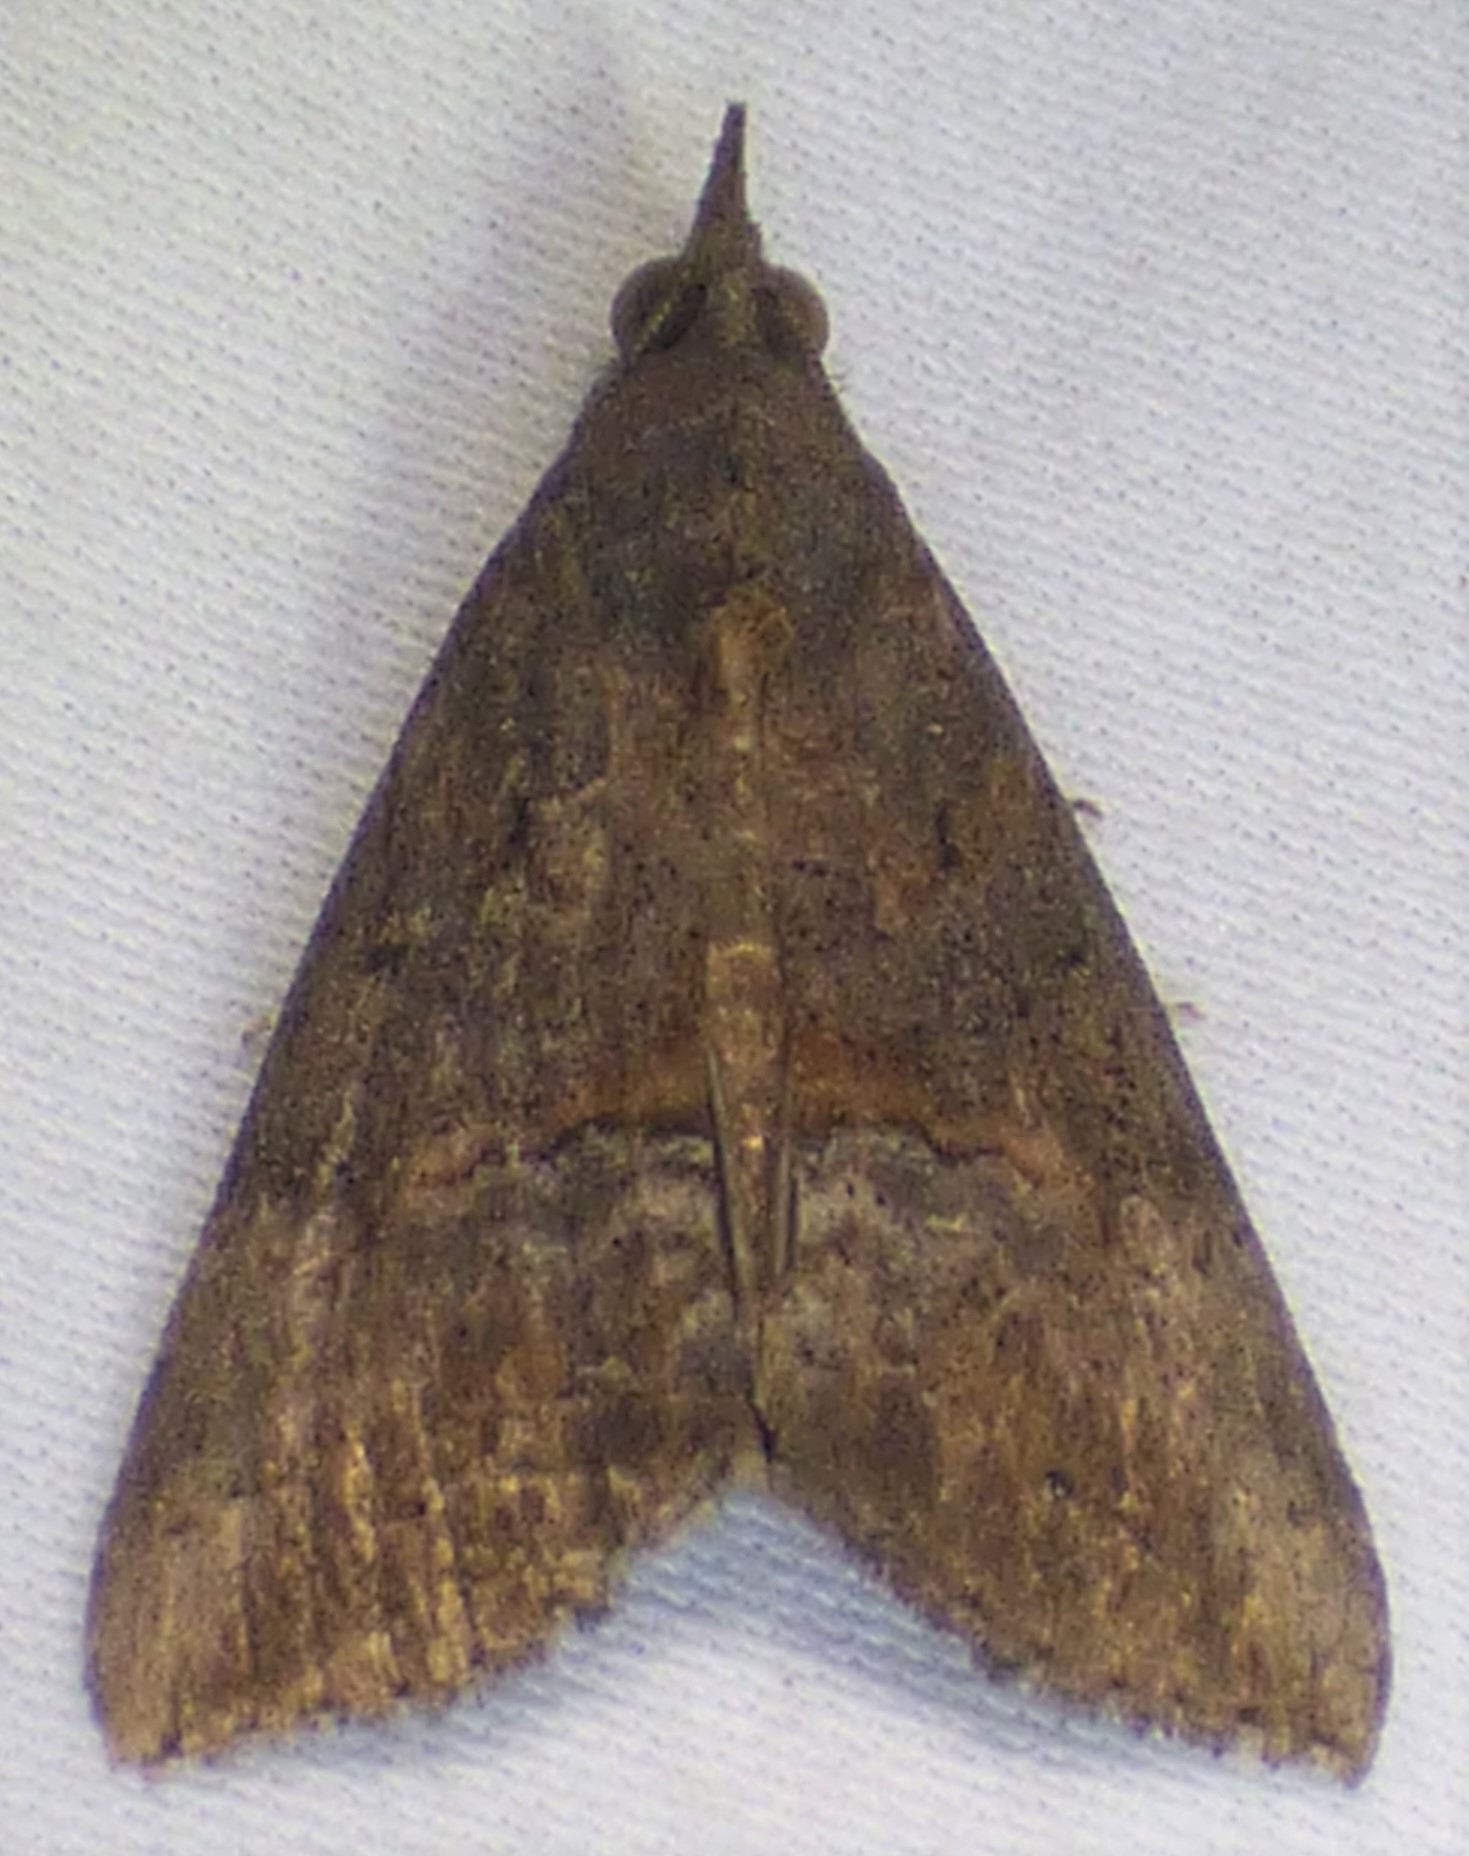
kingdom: Animalia
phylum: Arthropoda
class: Insecta
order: Lepidoptera
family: Erebidae
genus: Hypena
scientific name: Hypena scabra
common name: Green cloverworm
